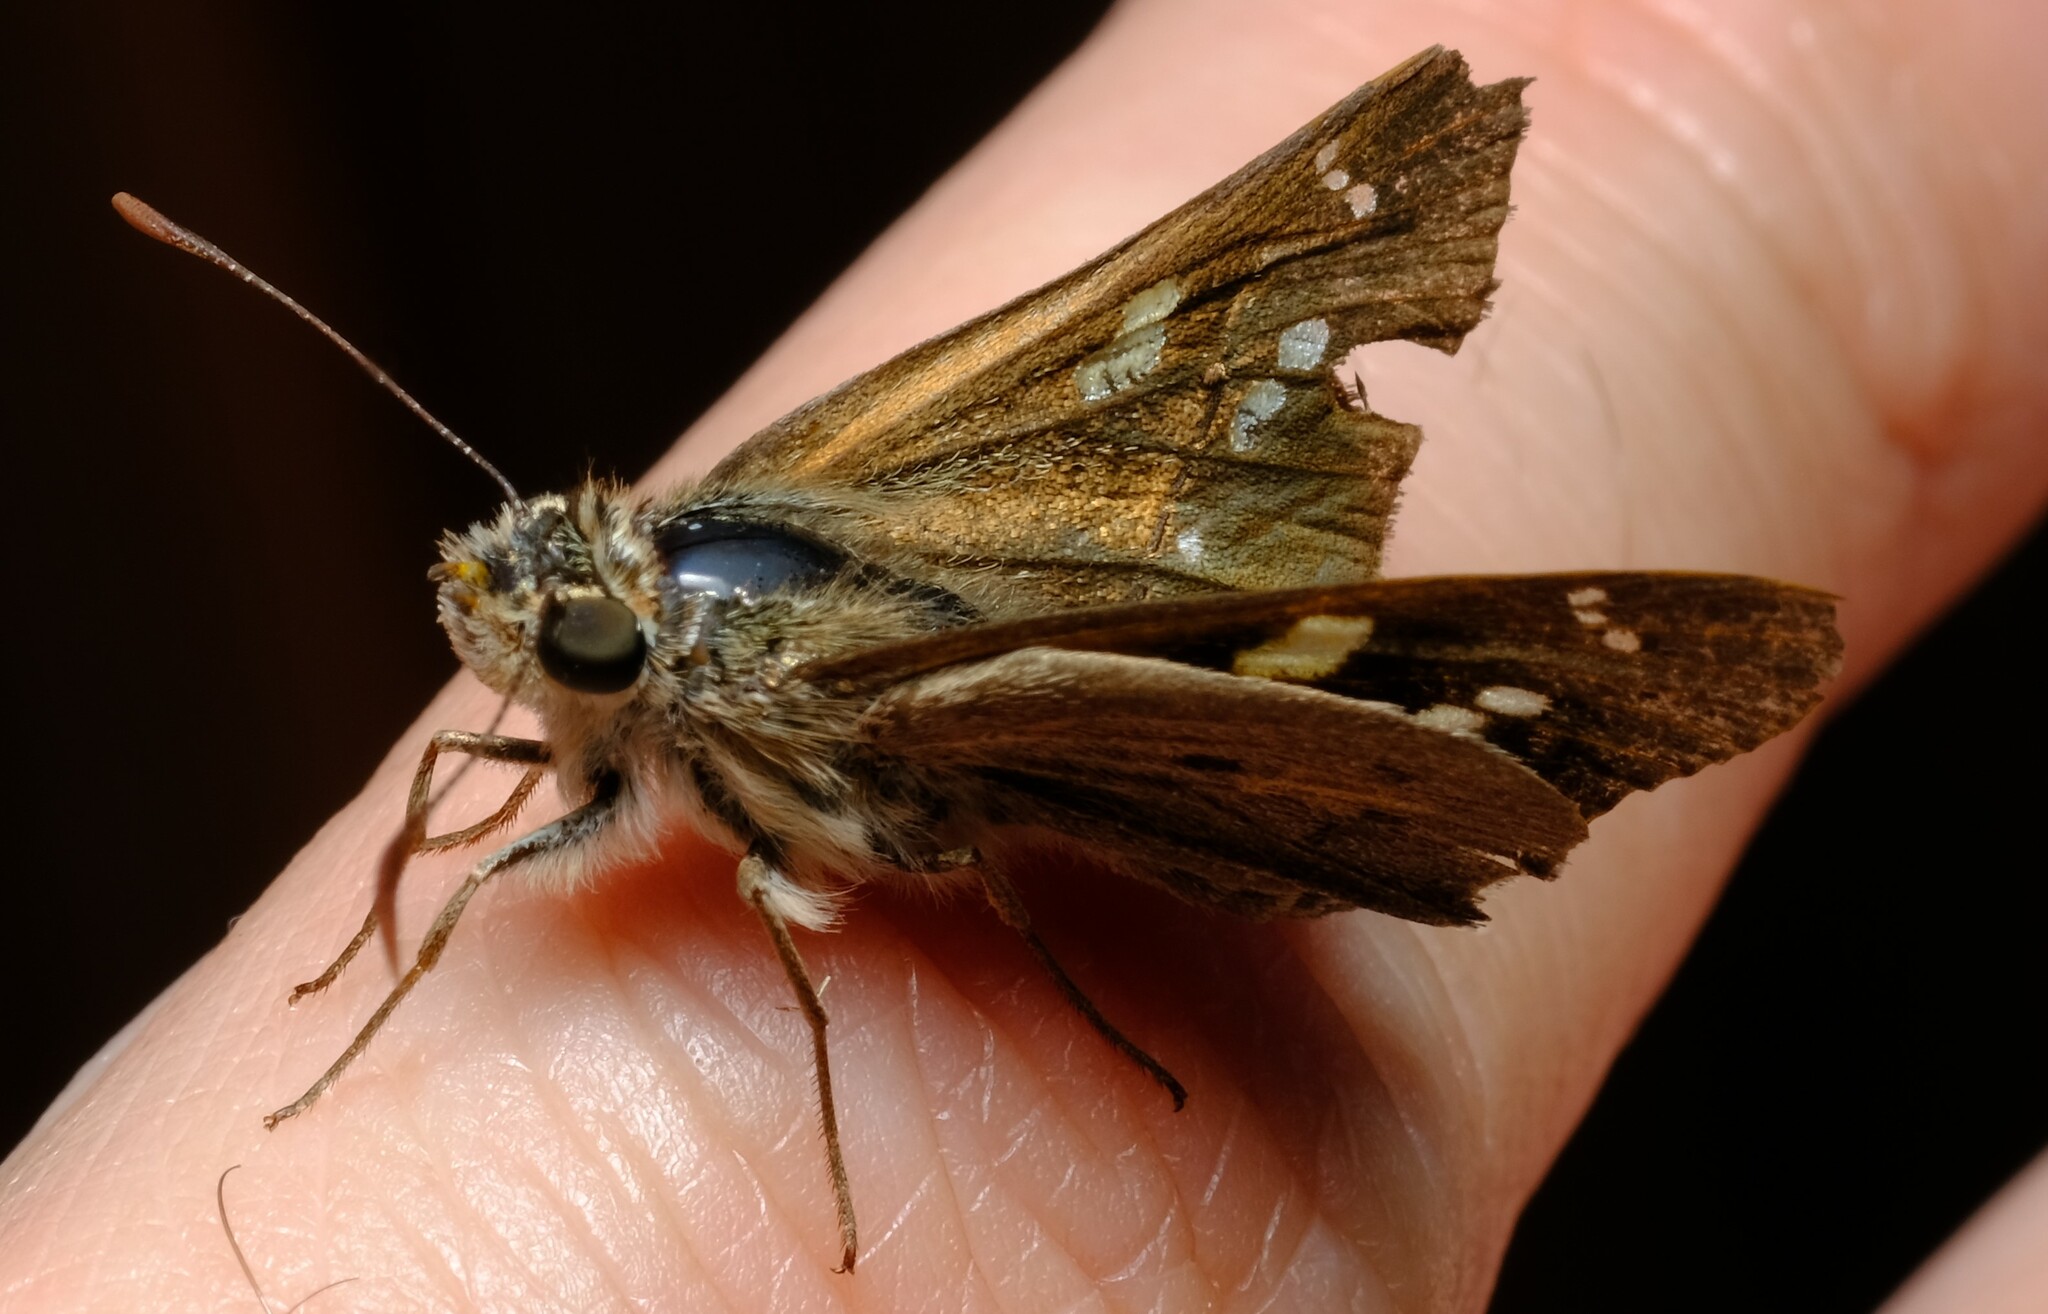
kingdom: Animalia
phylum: Arthropoda
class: Insecta
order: Lepidoptera
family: Hesperiidae
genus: Hesperilla
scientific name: Hesperilla donnysa
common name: Varied sedge-skipper
